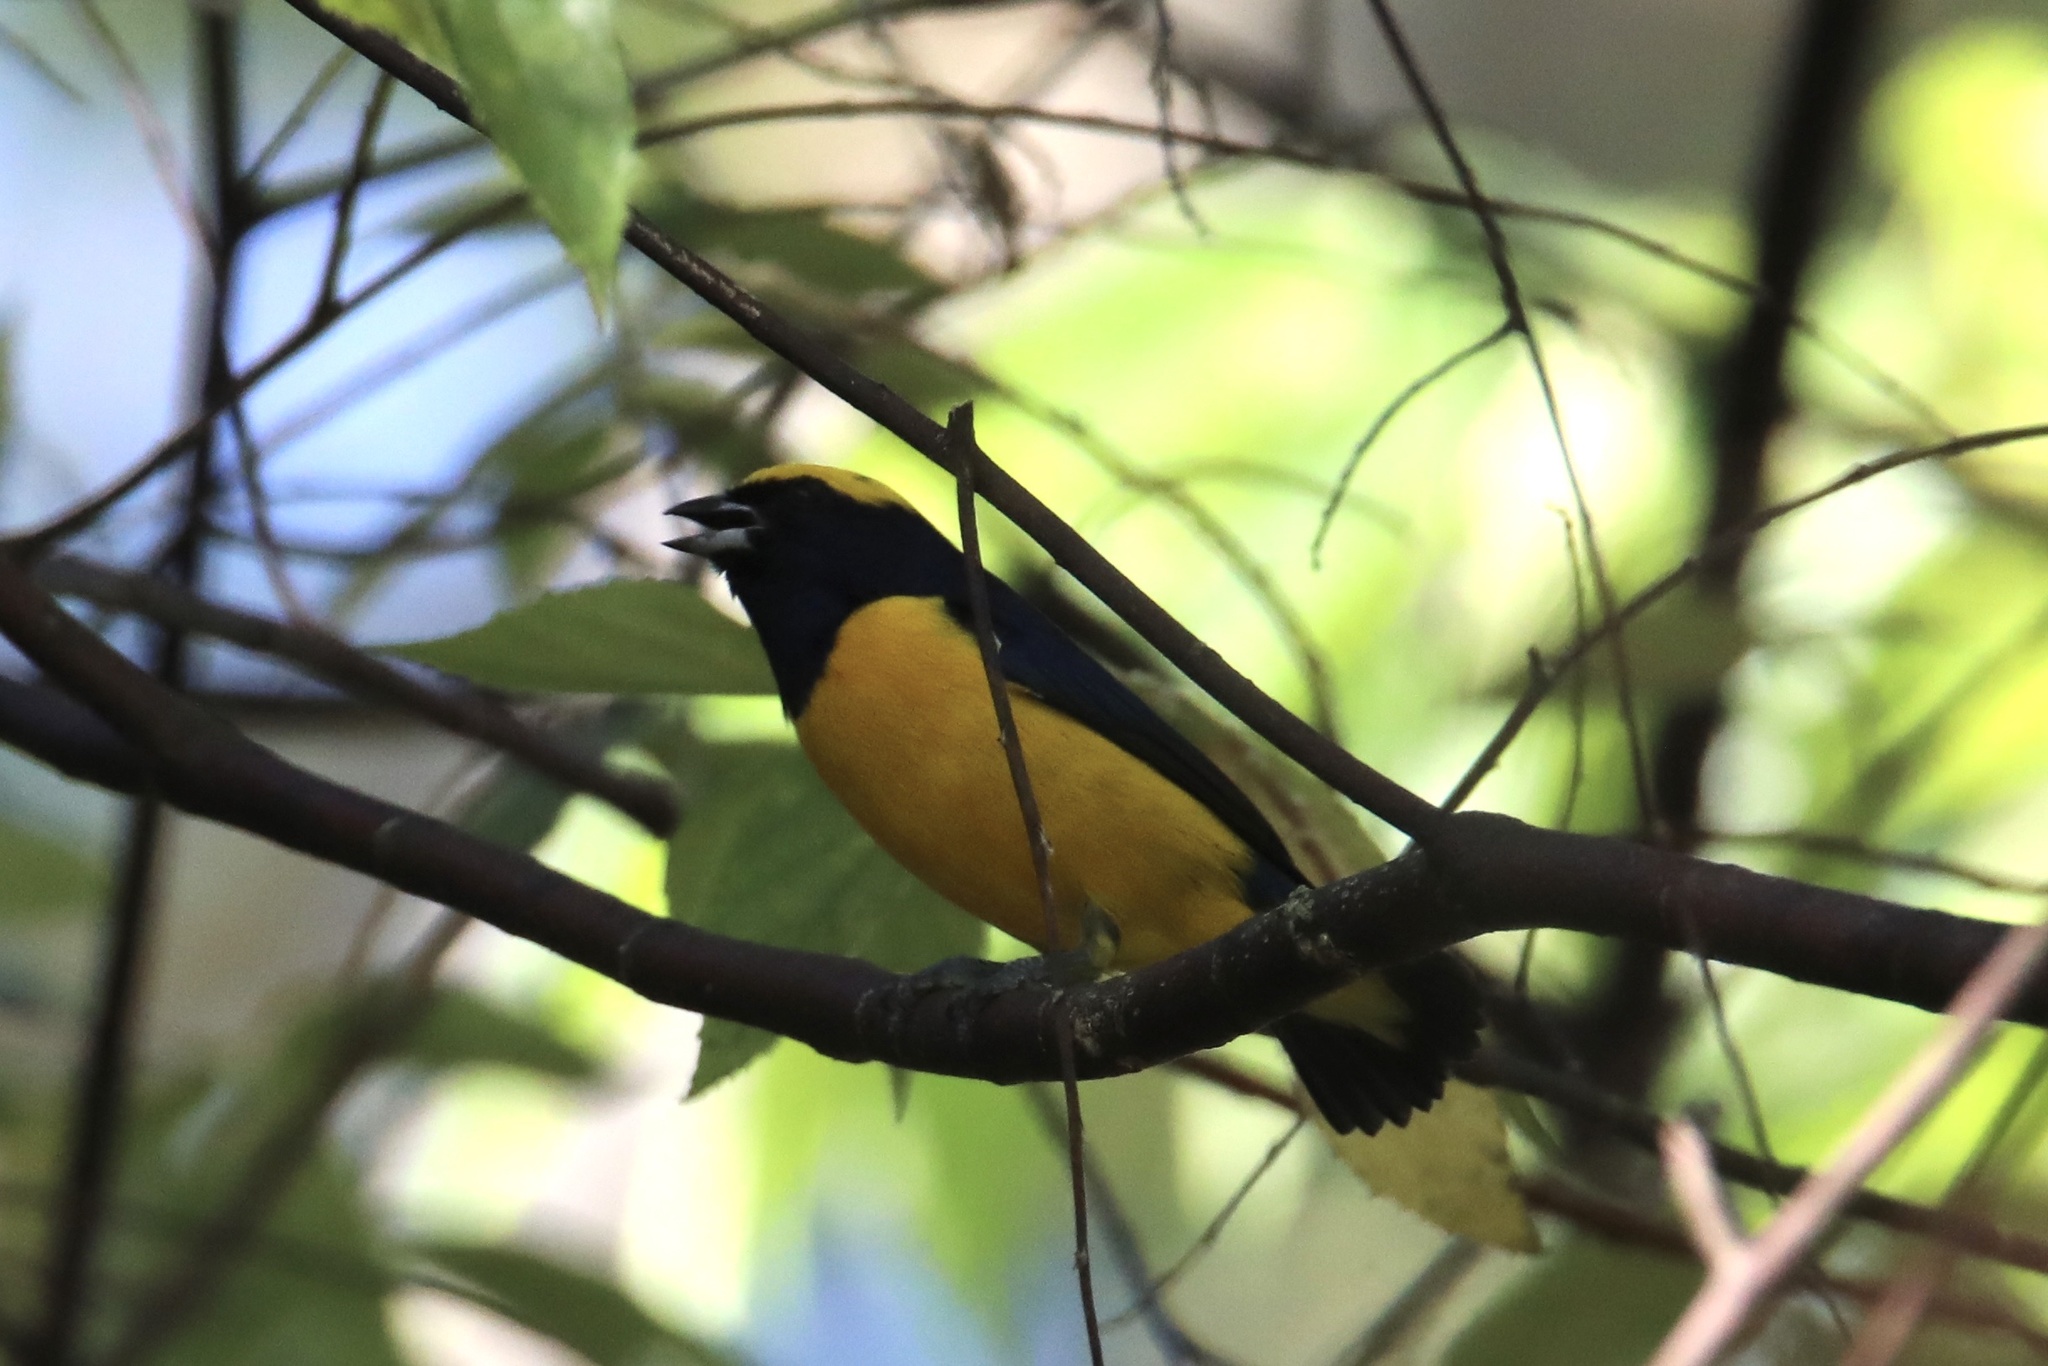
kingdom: Animalia
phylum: Chordata
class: Aves
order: Passeriformes
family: Fringillidae
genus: Euphonia
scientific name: Euphonia luteicapilla
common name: Yellow-crowned euphonia
